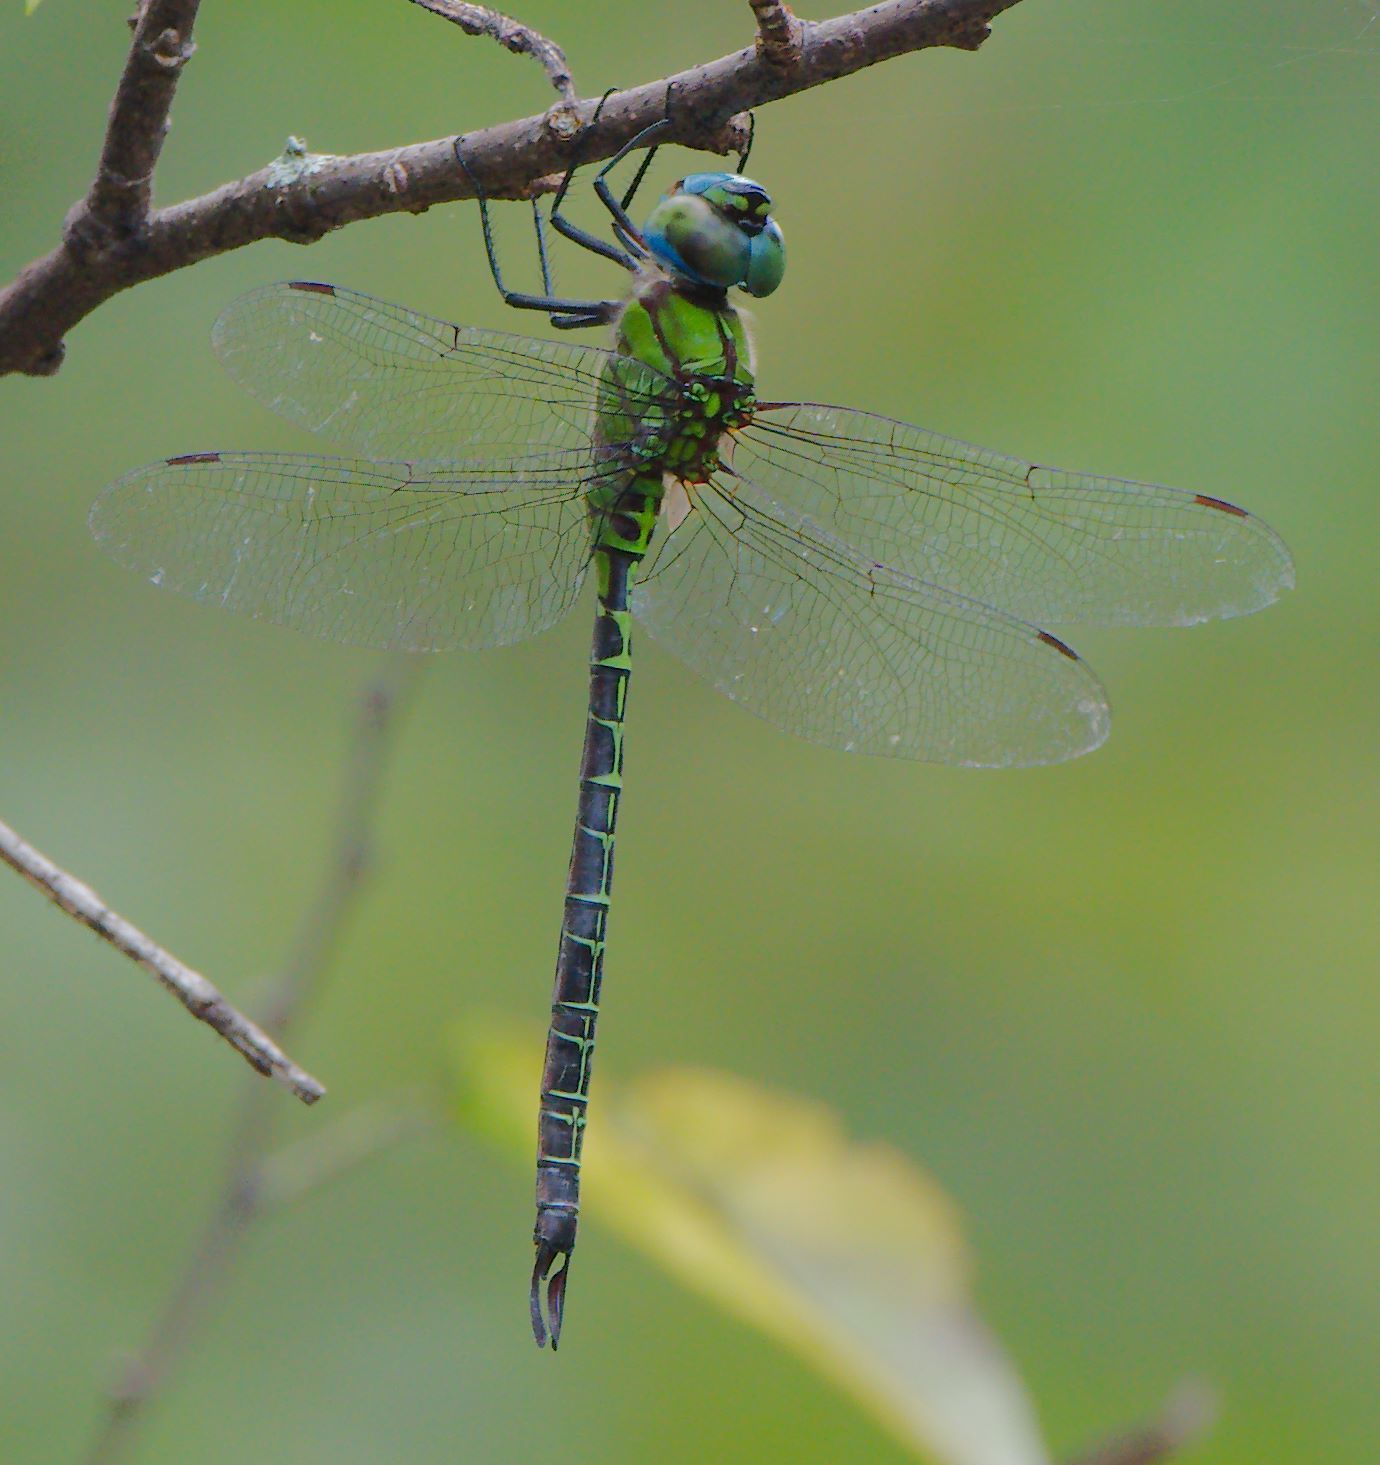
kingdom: Animalia
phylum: Arthropoda
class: Insecta
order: Odonata
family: Aeshnidae
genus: Coryphaeschna
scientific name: Coryphaeschna adnexa
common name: Blue-faced darner
